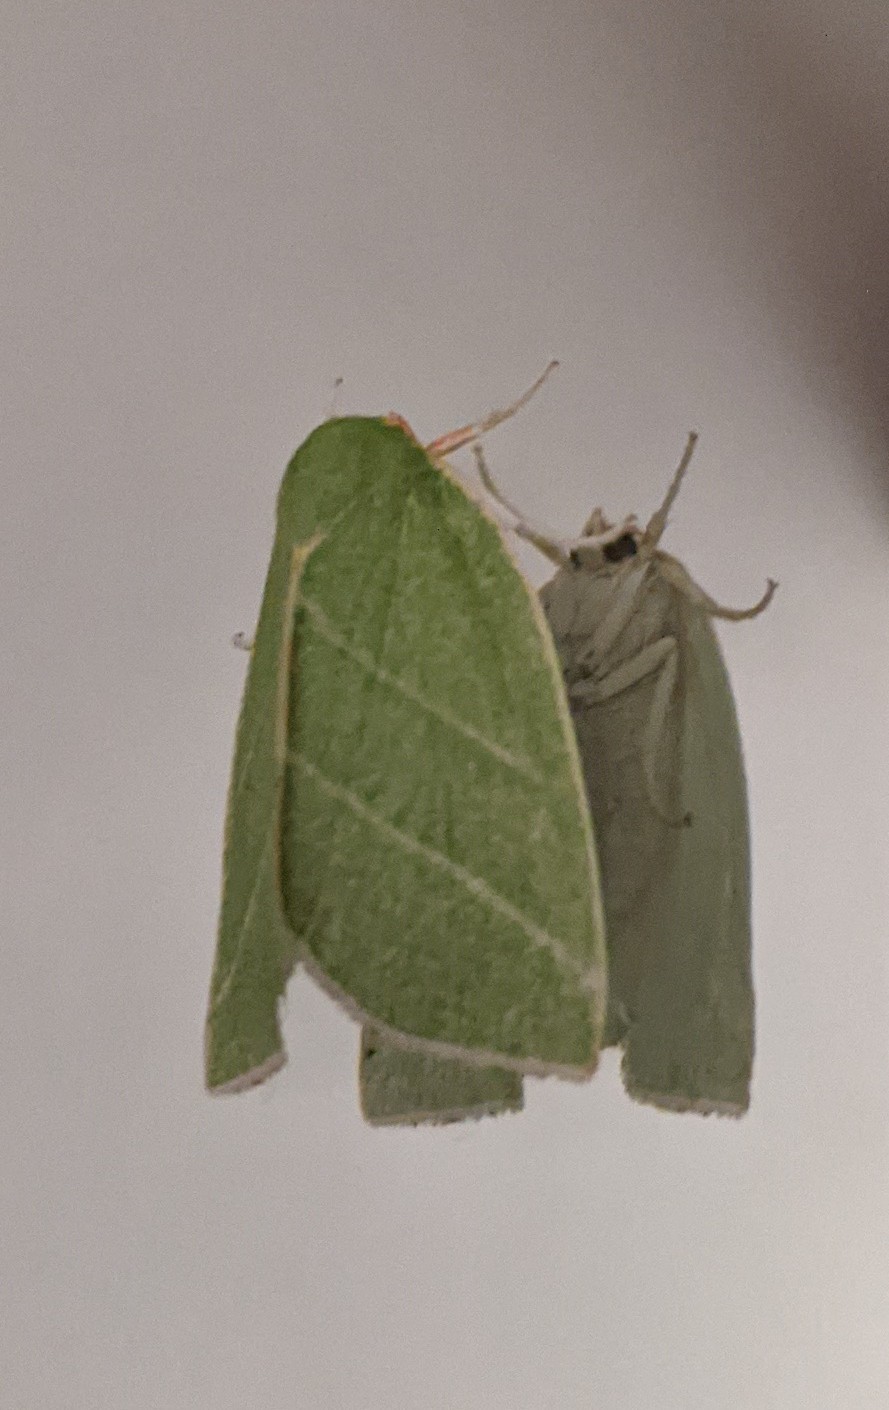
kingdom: Animalia
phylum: Arthropoda
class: Insecta
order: Lepidoptera
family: Nolidae
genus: Bena
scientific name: Bena bicolorana
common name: Scarce silver-lines
